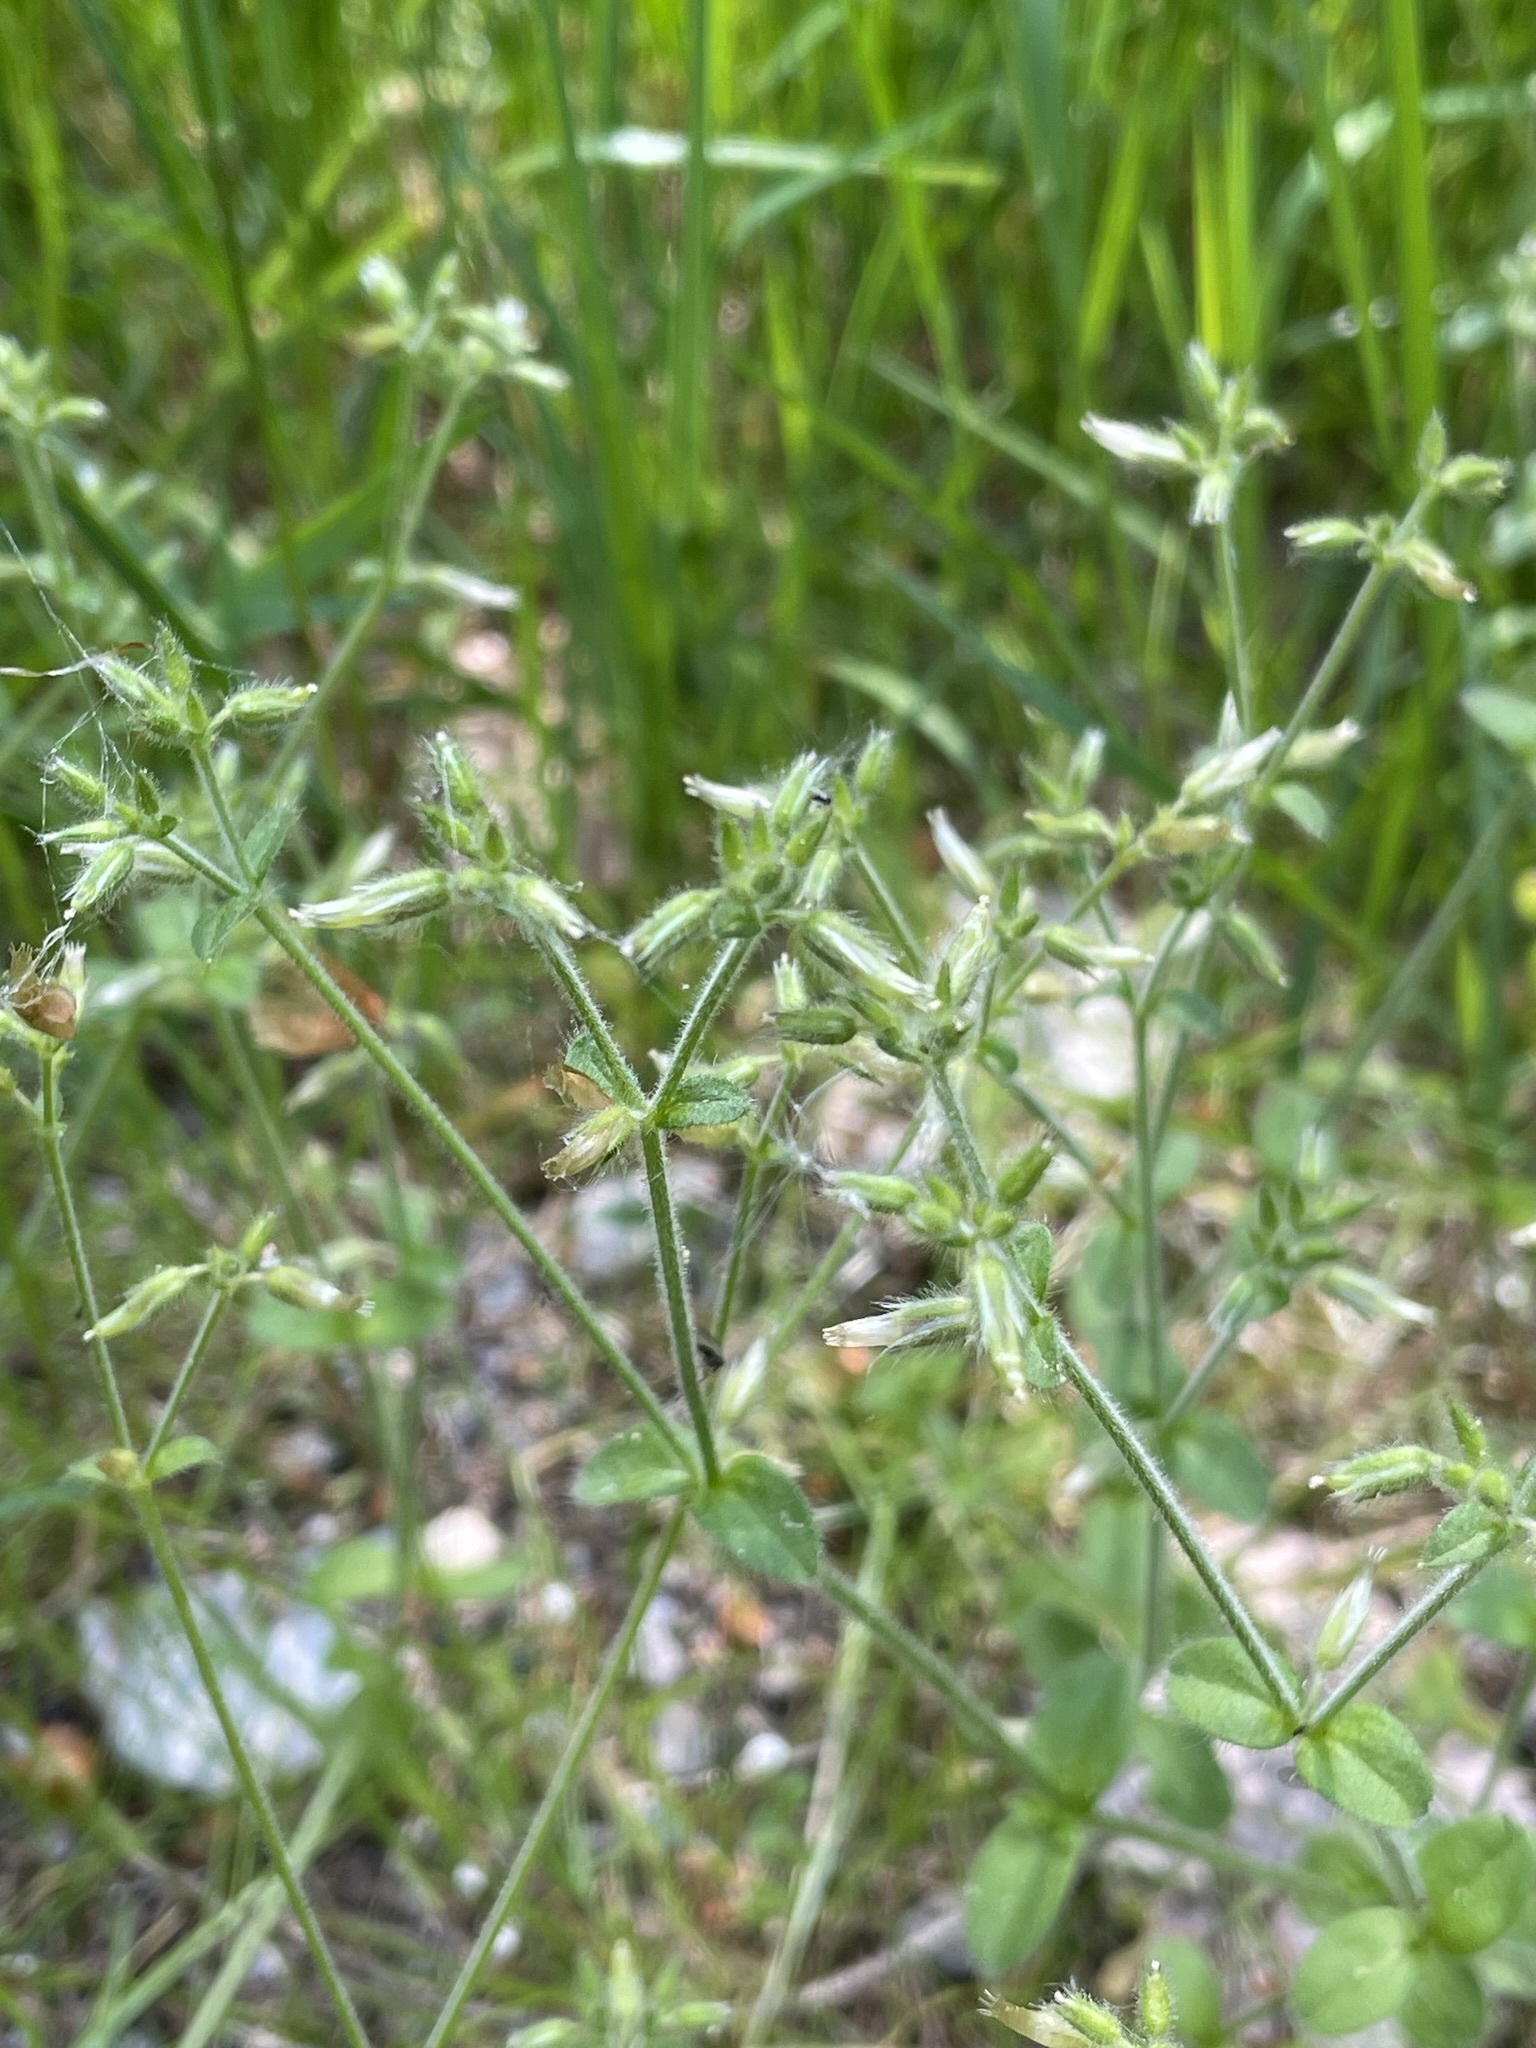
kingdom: Plantae
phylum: Tracheophyta
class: Magnoliopsida
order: Caryophyllales
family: Caryophyllaceae
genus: Cerastium
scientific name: Cerastium glomeratum
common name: Sticky chickweed
